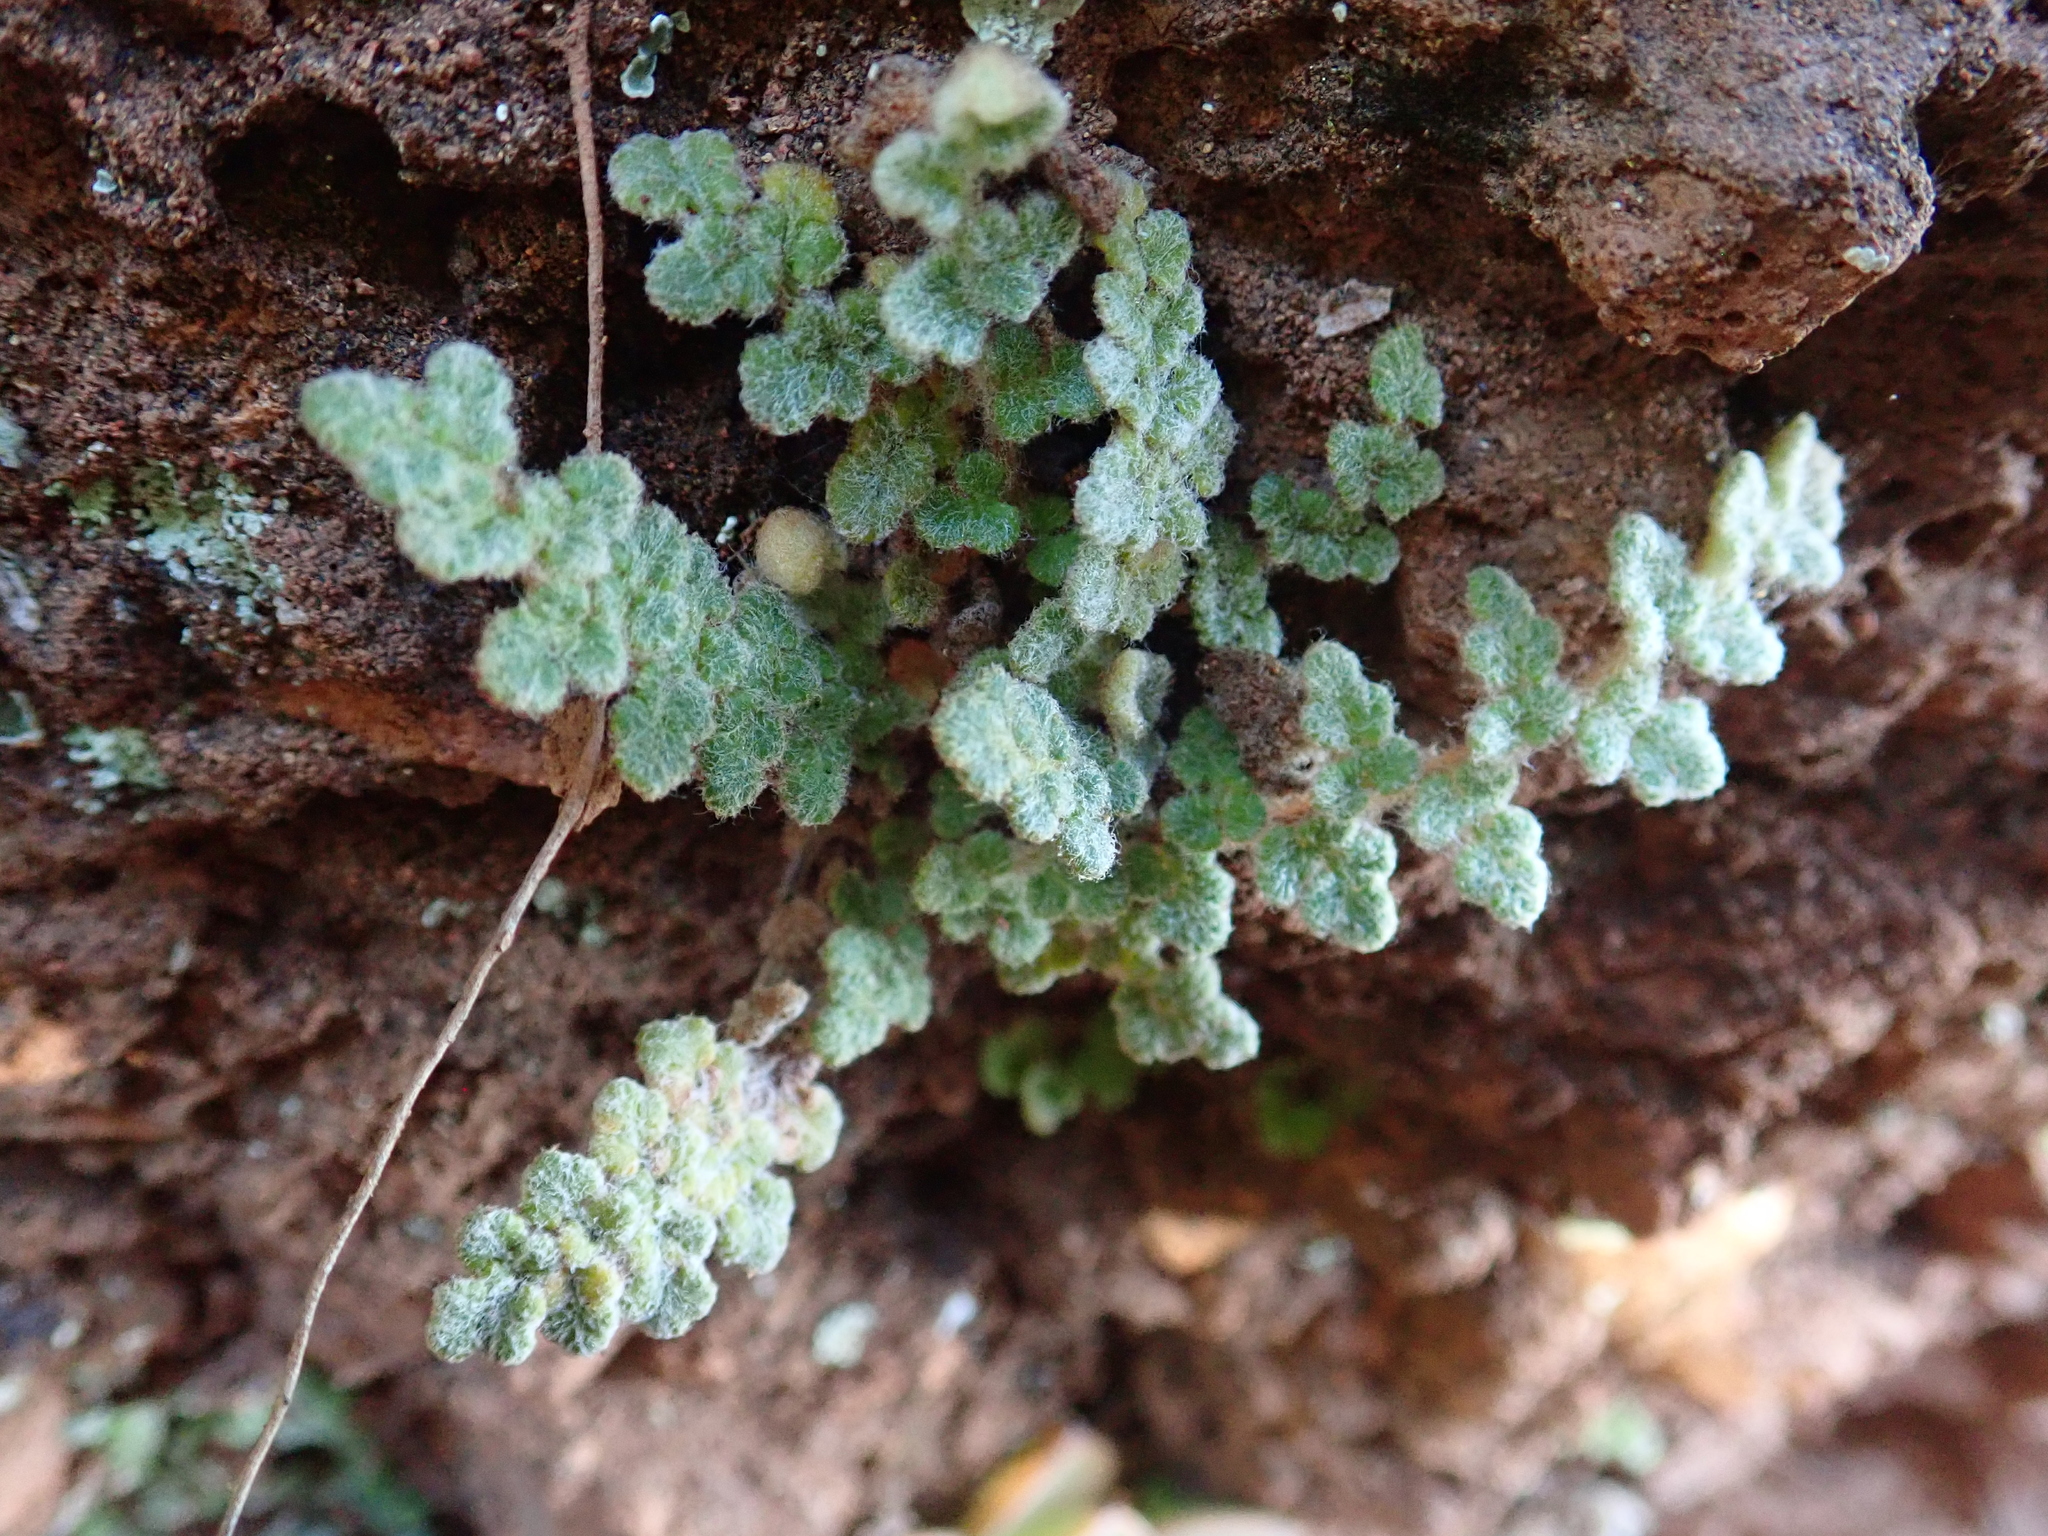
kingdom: Plantae
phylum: Tracheophyta
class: Polypodiopsida
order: Polypodiales
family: Pteridaceae
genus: Cosentinia
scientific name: Cosentinia vellea
